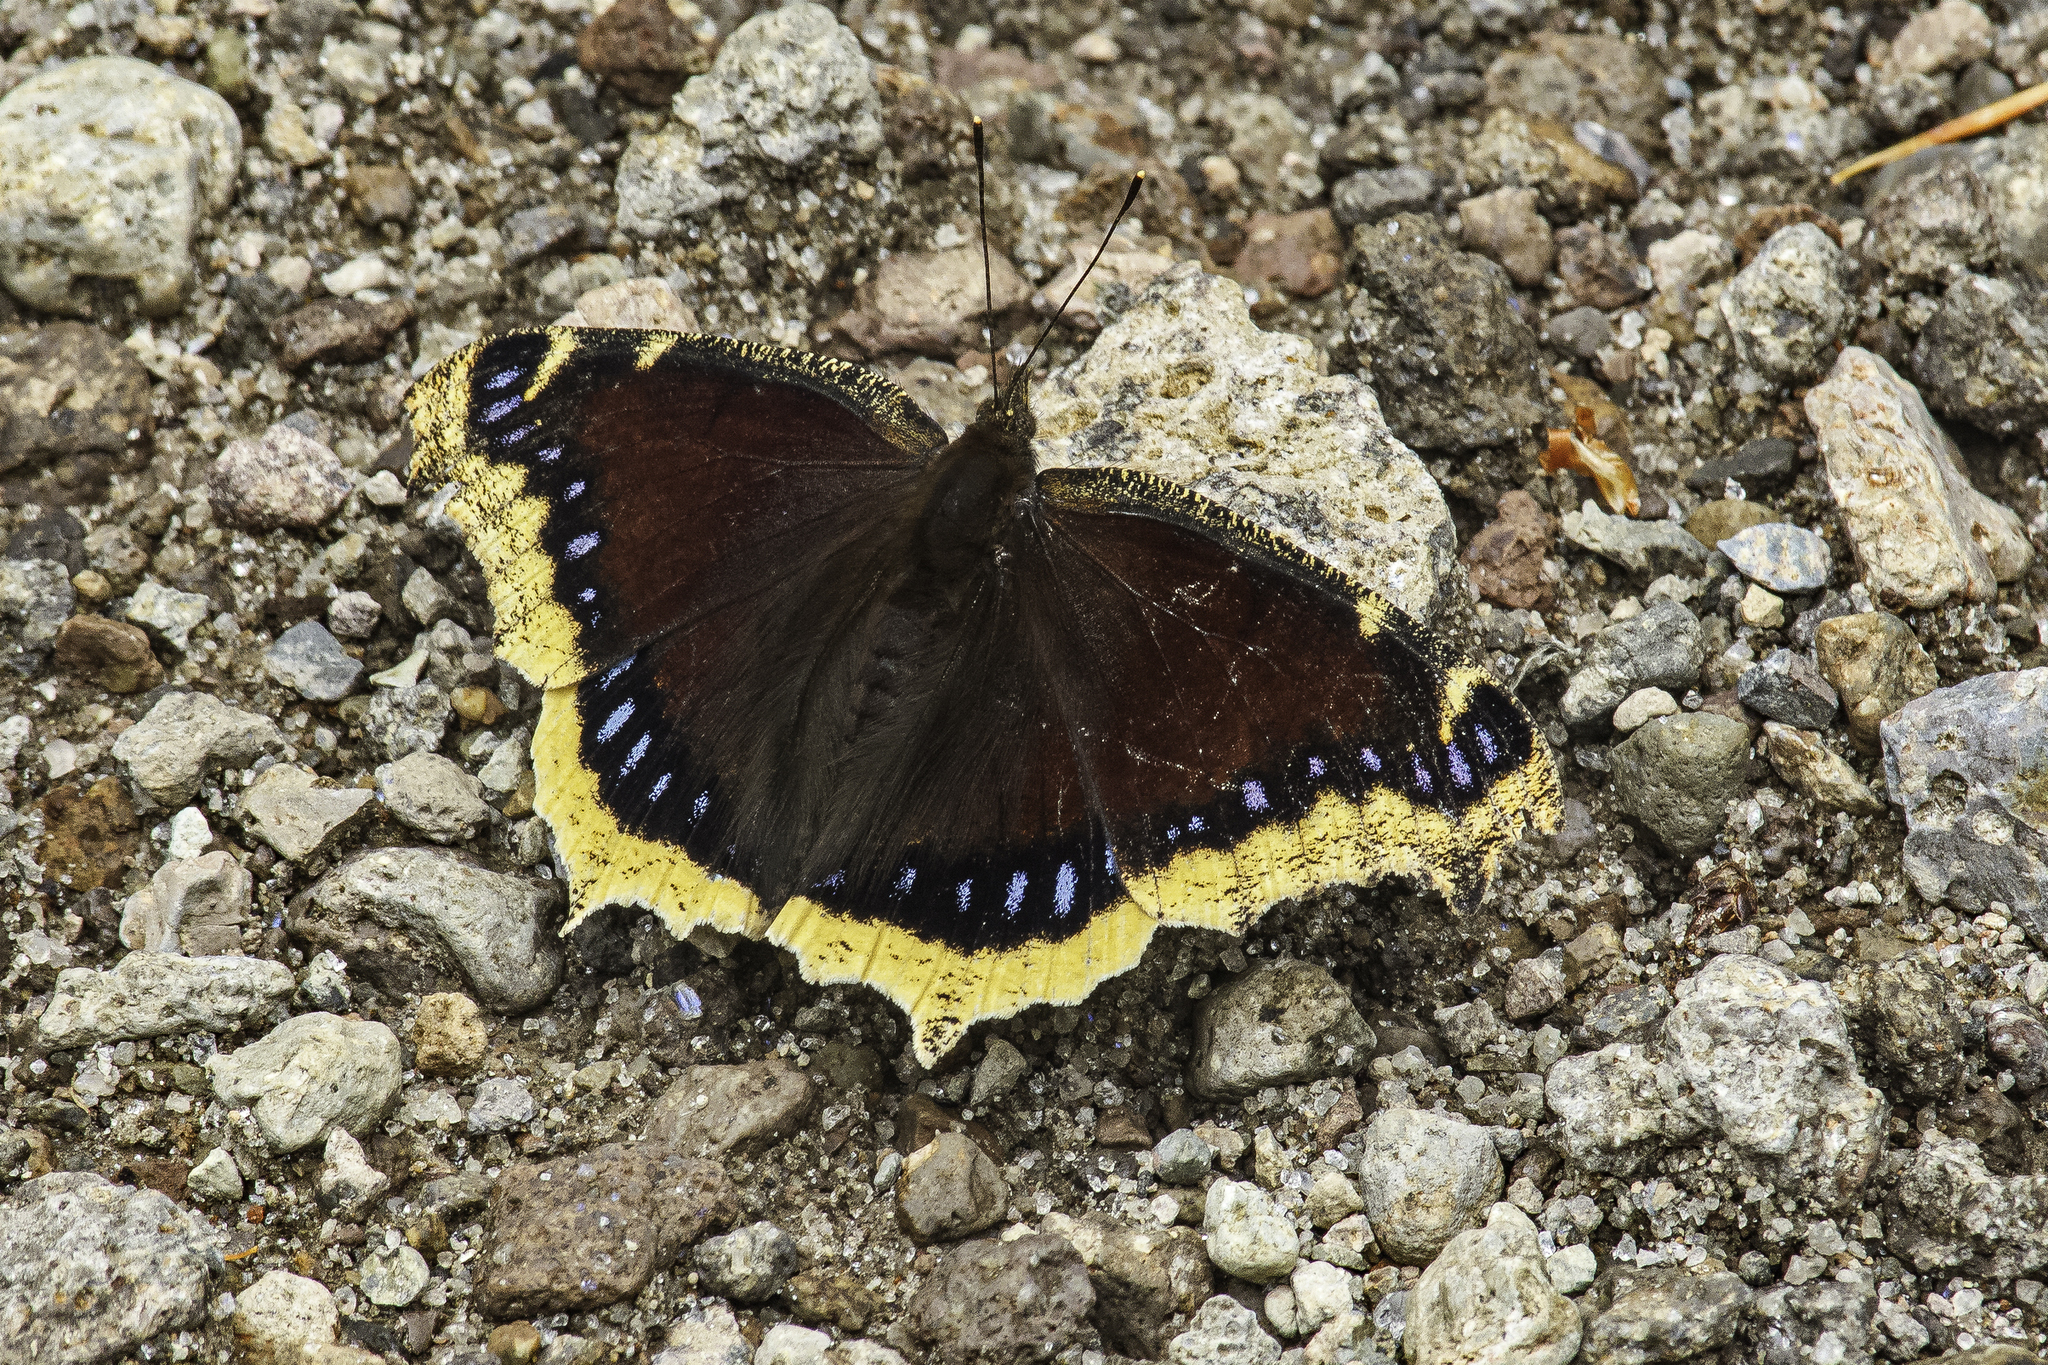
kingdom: Animalia
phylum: Arthropoda
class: Insecta
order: Lepidoptera
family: Nymphalidae
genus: Nymphalis
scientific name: Nymphalis antiopa
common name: Camberwell beauty
